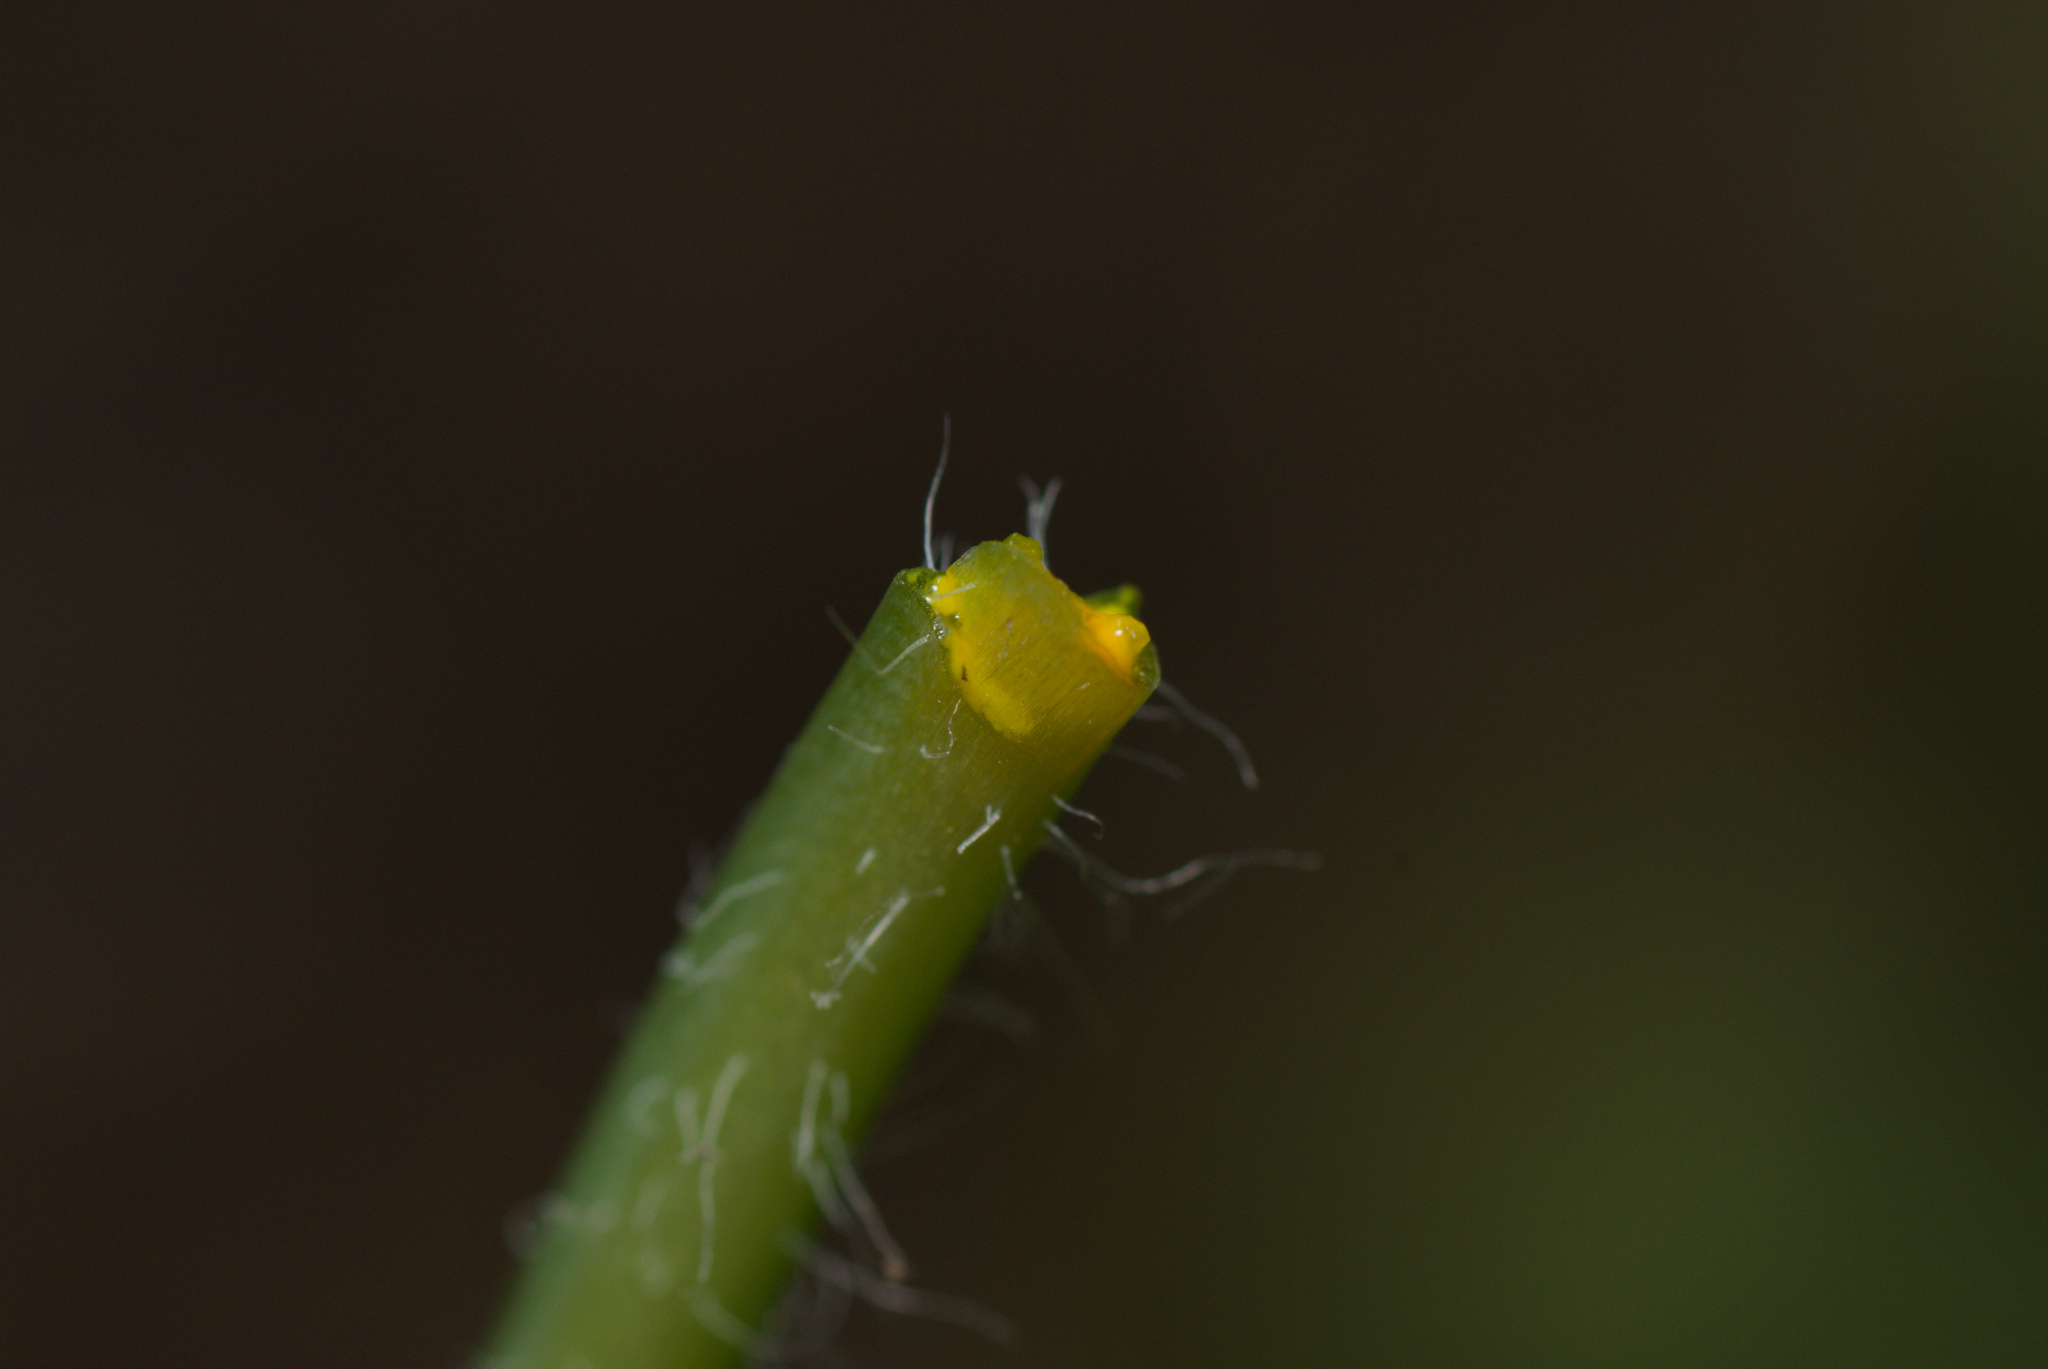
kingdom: Plantae
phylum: Tracheophyta
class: Magnoliopsida
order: Ranunculales
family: Papaveraceae
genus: Chelidonium
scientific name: Chelidonium majus
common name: Greater celandine
